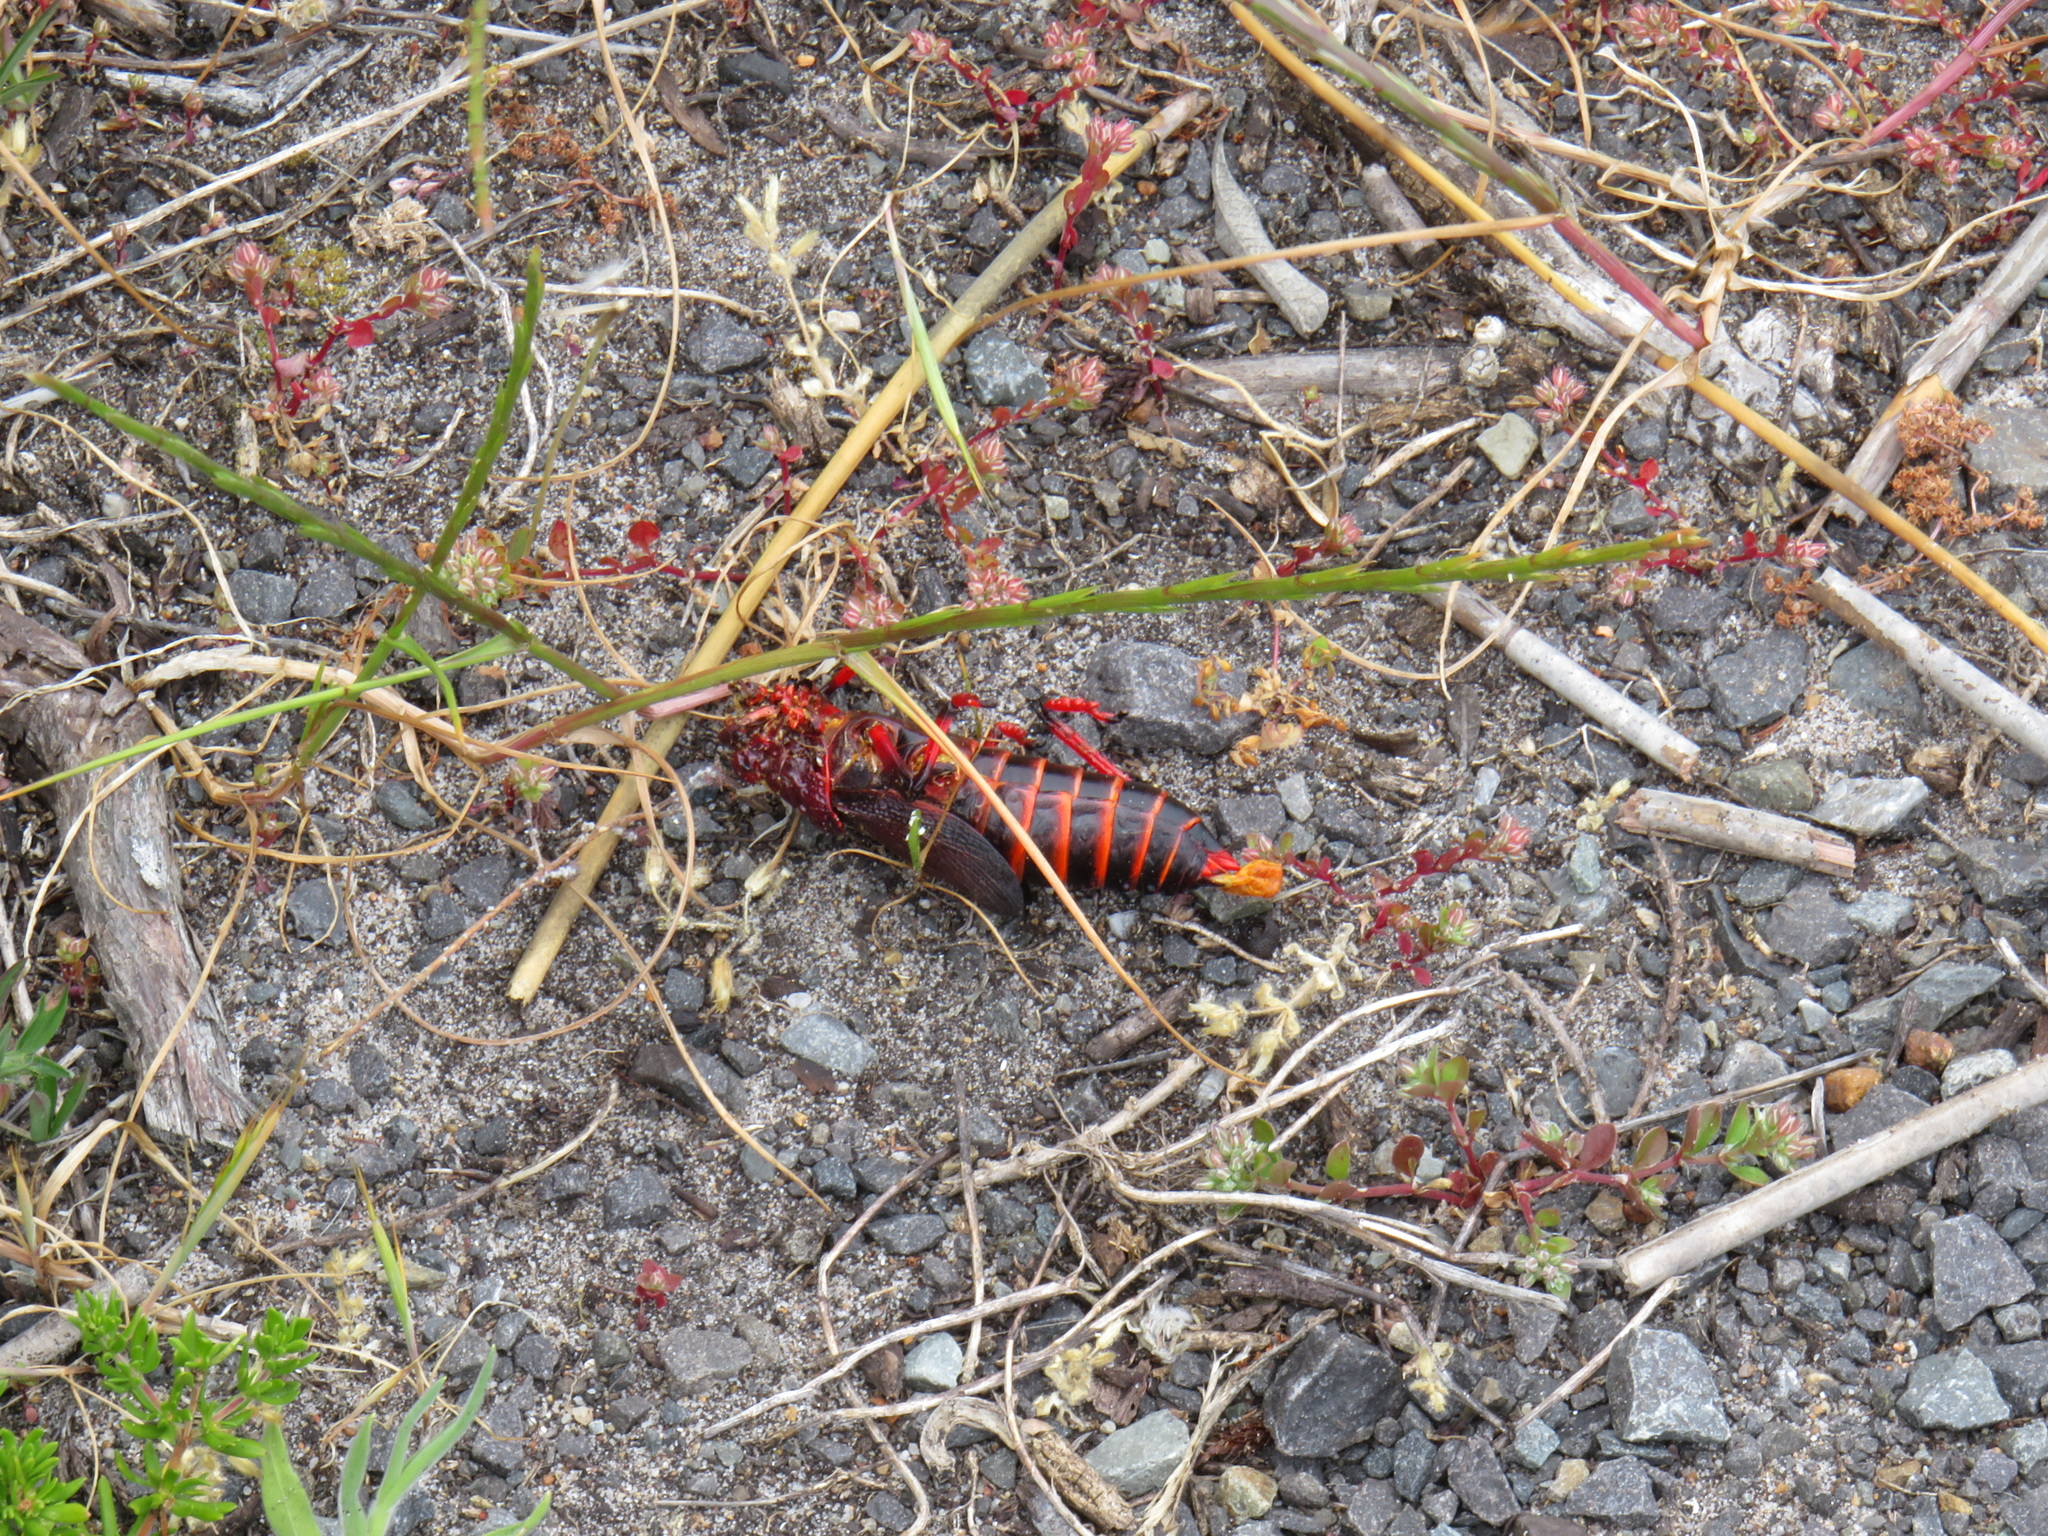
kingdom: Animalia
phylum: Arthropoda
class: Insecta
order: Orthoptera
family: Pyrgomorphidae
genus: Dictyophorus
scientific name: Dictyophorus spumans
